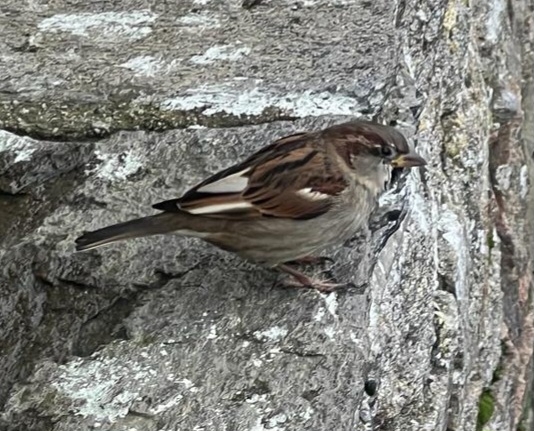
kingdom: Animalia
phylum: Chordata
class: Aves
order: Passeriformes
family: Passeridae
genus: Passer
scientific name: Passer domesticus
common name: House sparrow
